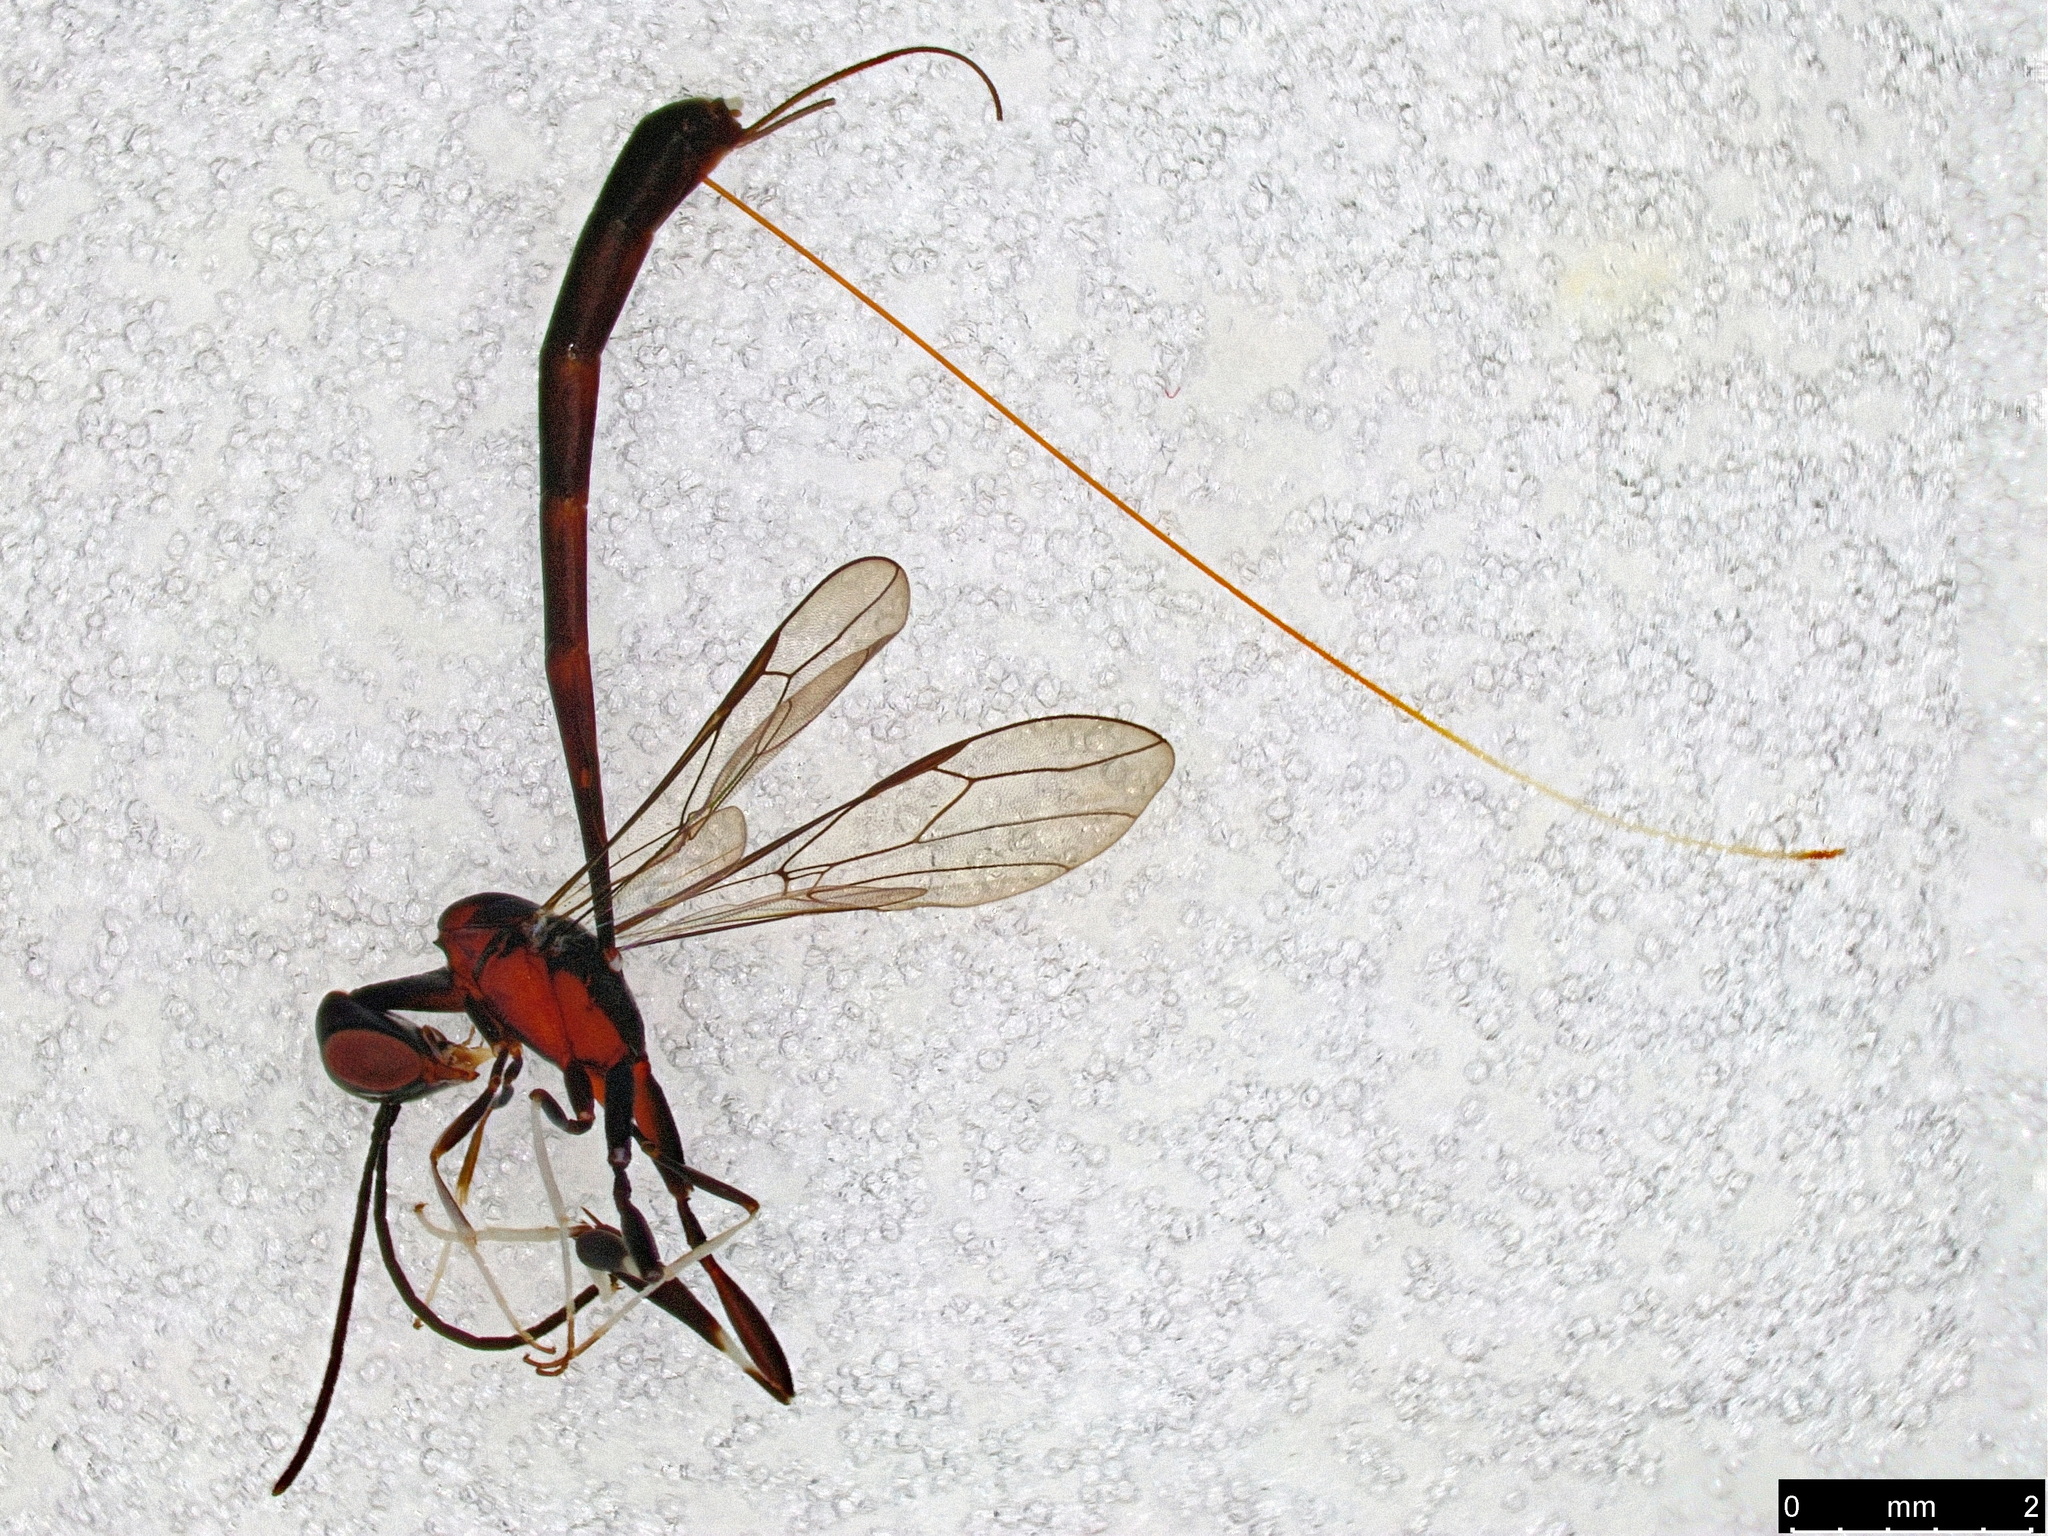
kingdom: Animalia
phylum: Arthropoda
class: Insecta
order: Hymenoptera
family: Gasteruptiidae
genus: Gasteruption
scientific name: Gasteruption
